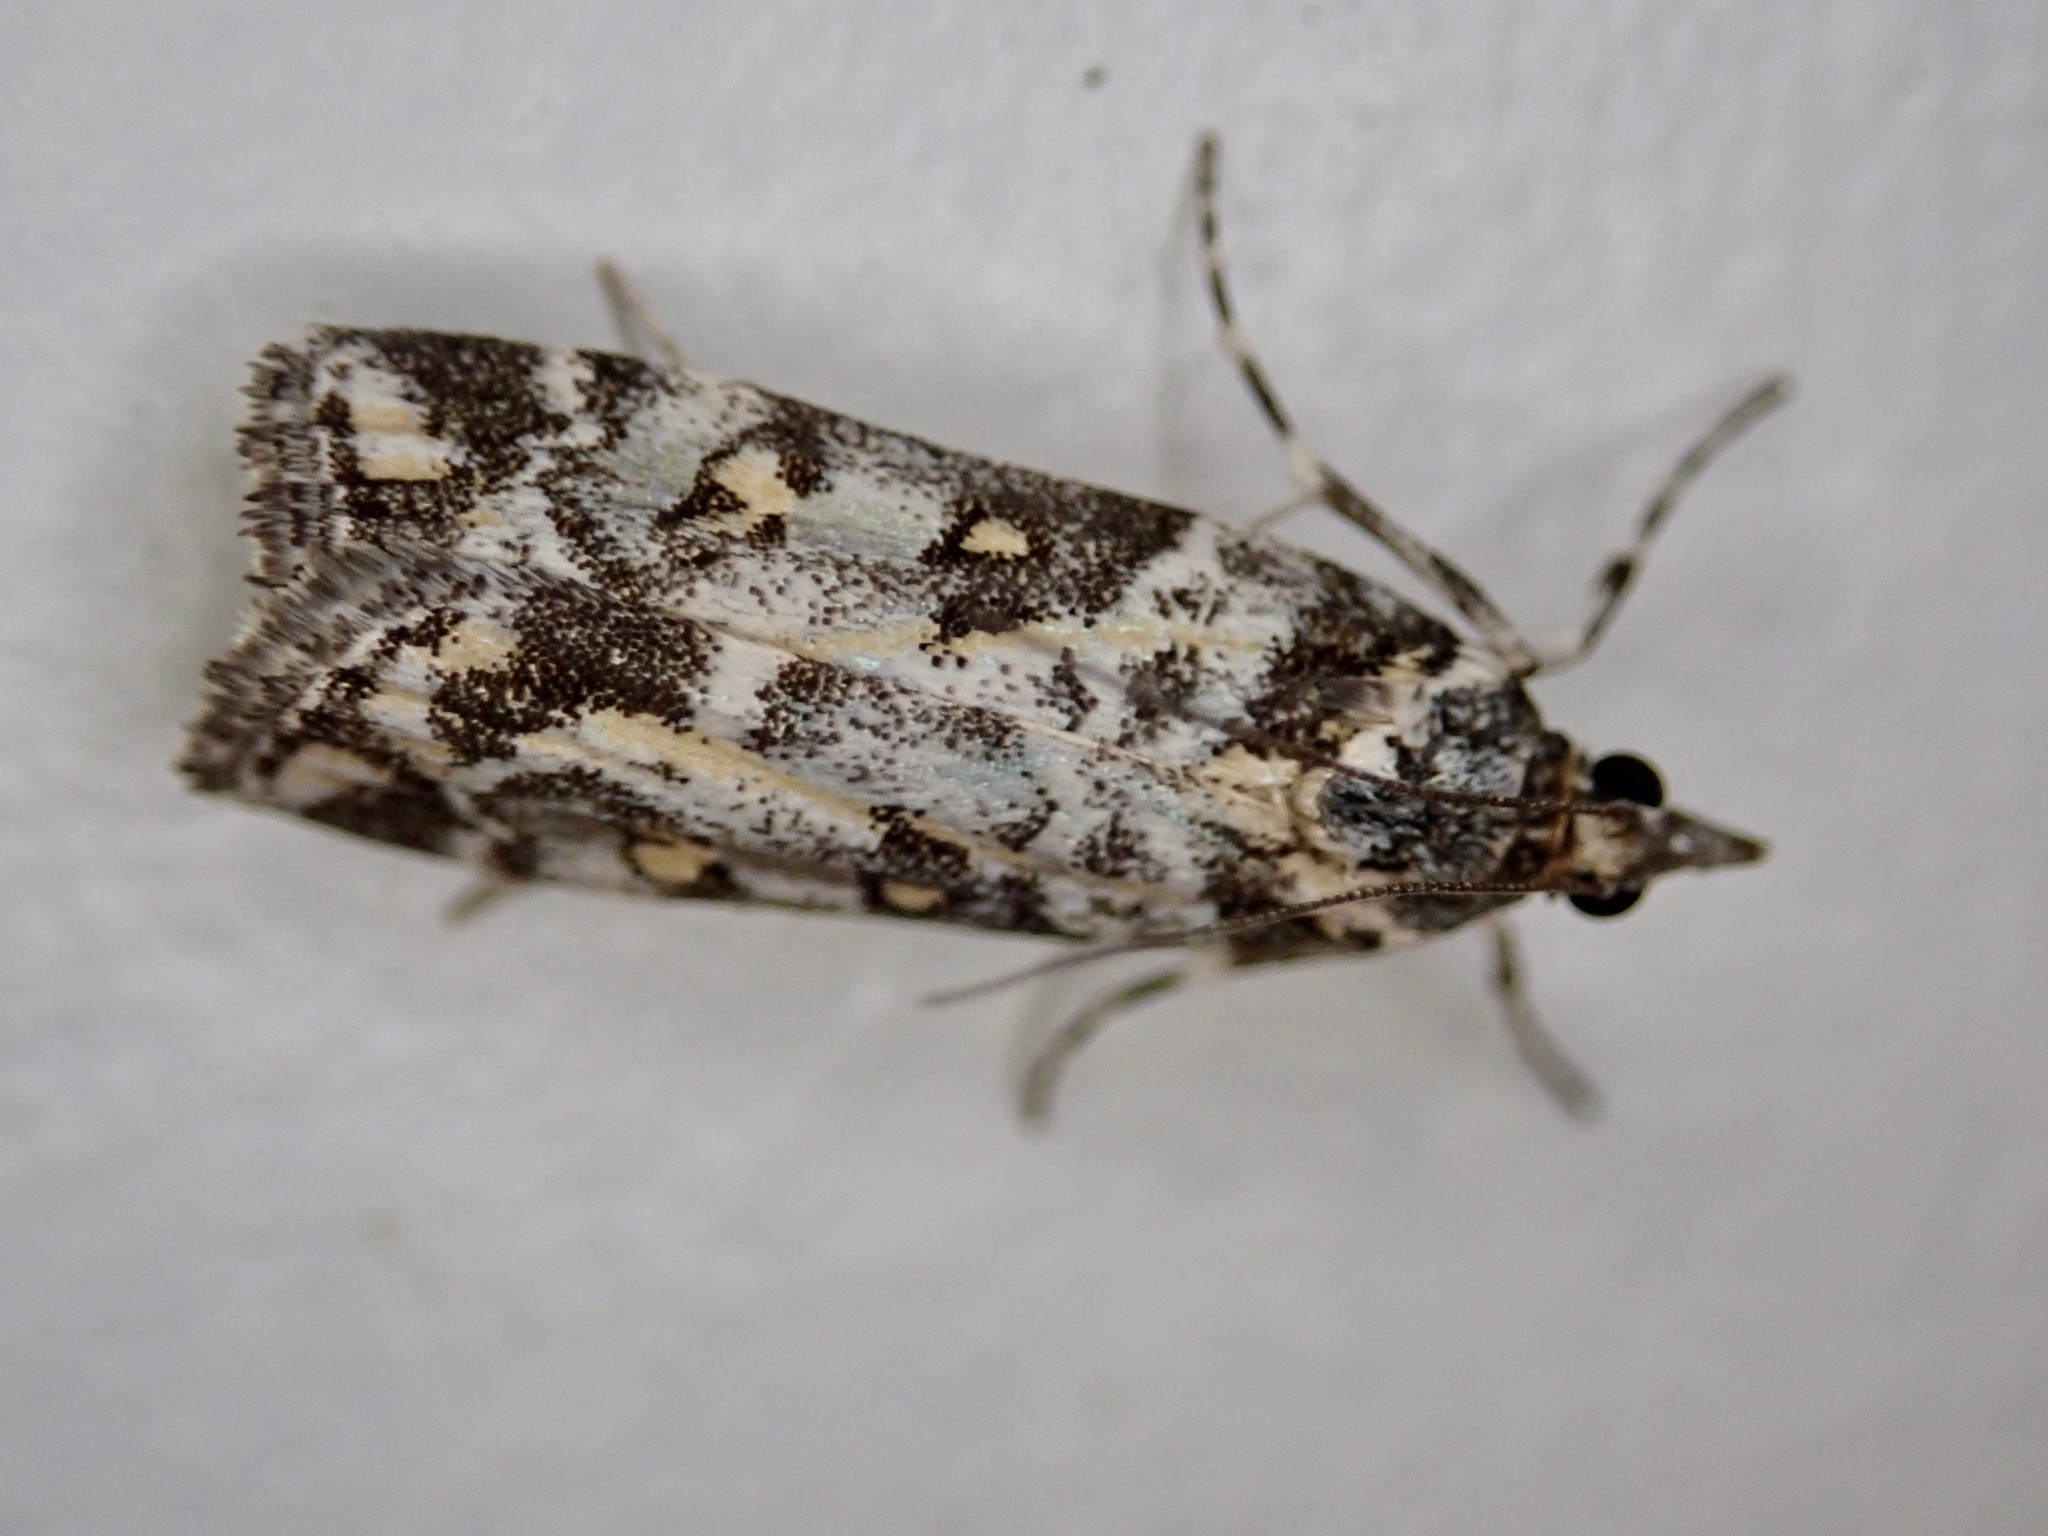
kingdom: Animalia
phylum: Arthropoda
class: Insecta
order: Lepidoptera
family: Crambidae
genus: Eudonia
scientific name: Eudonia diphtheralis
